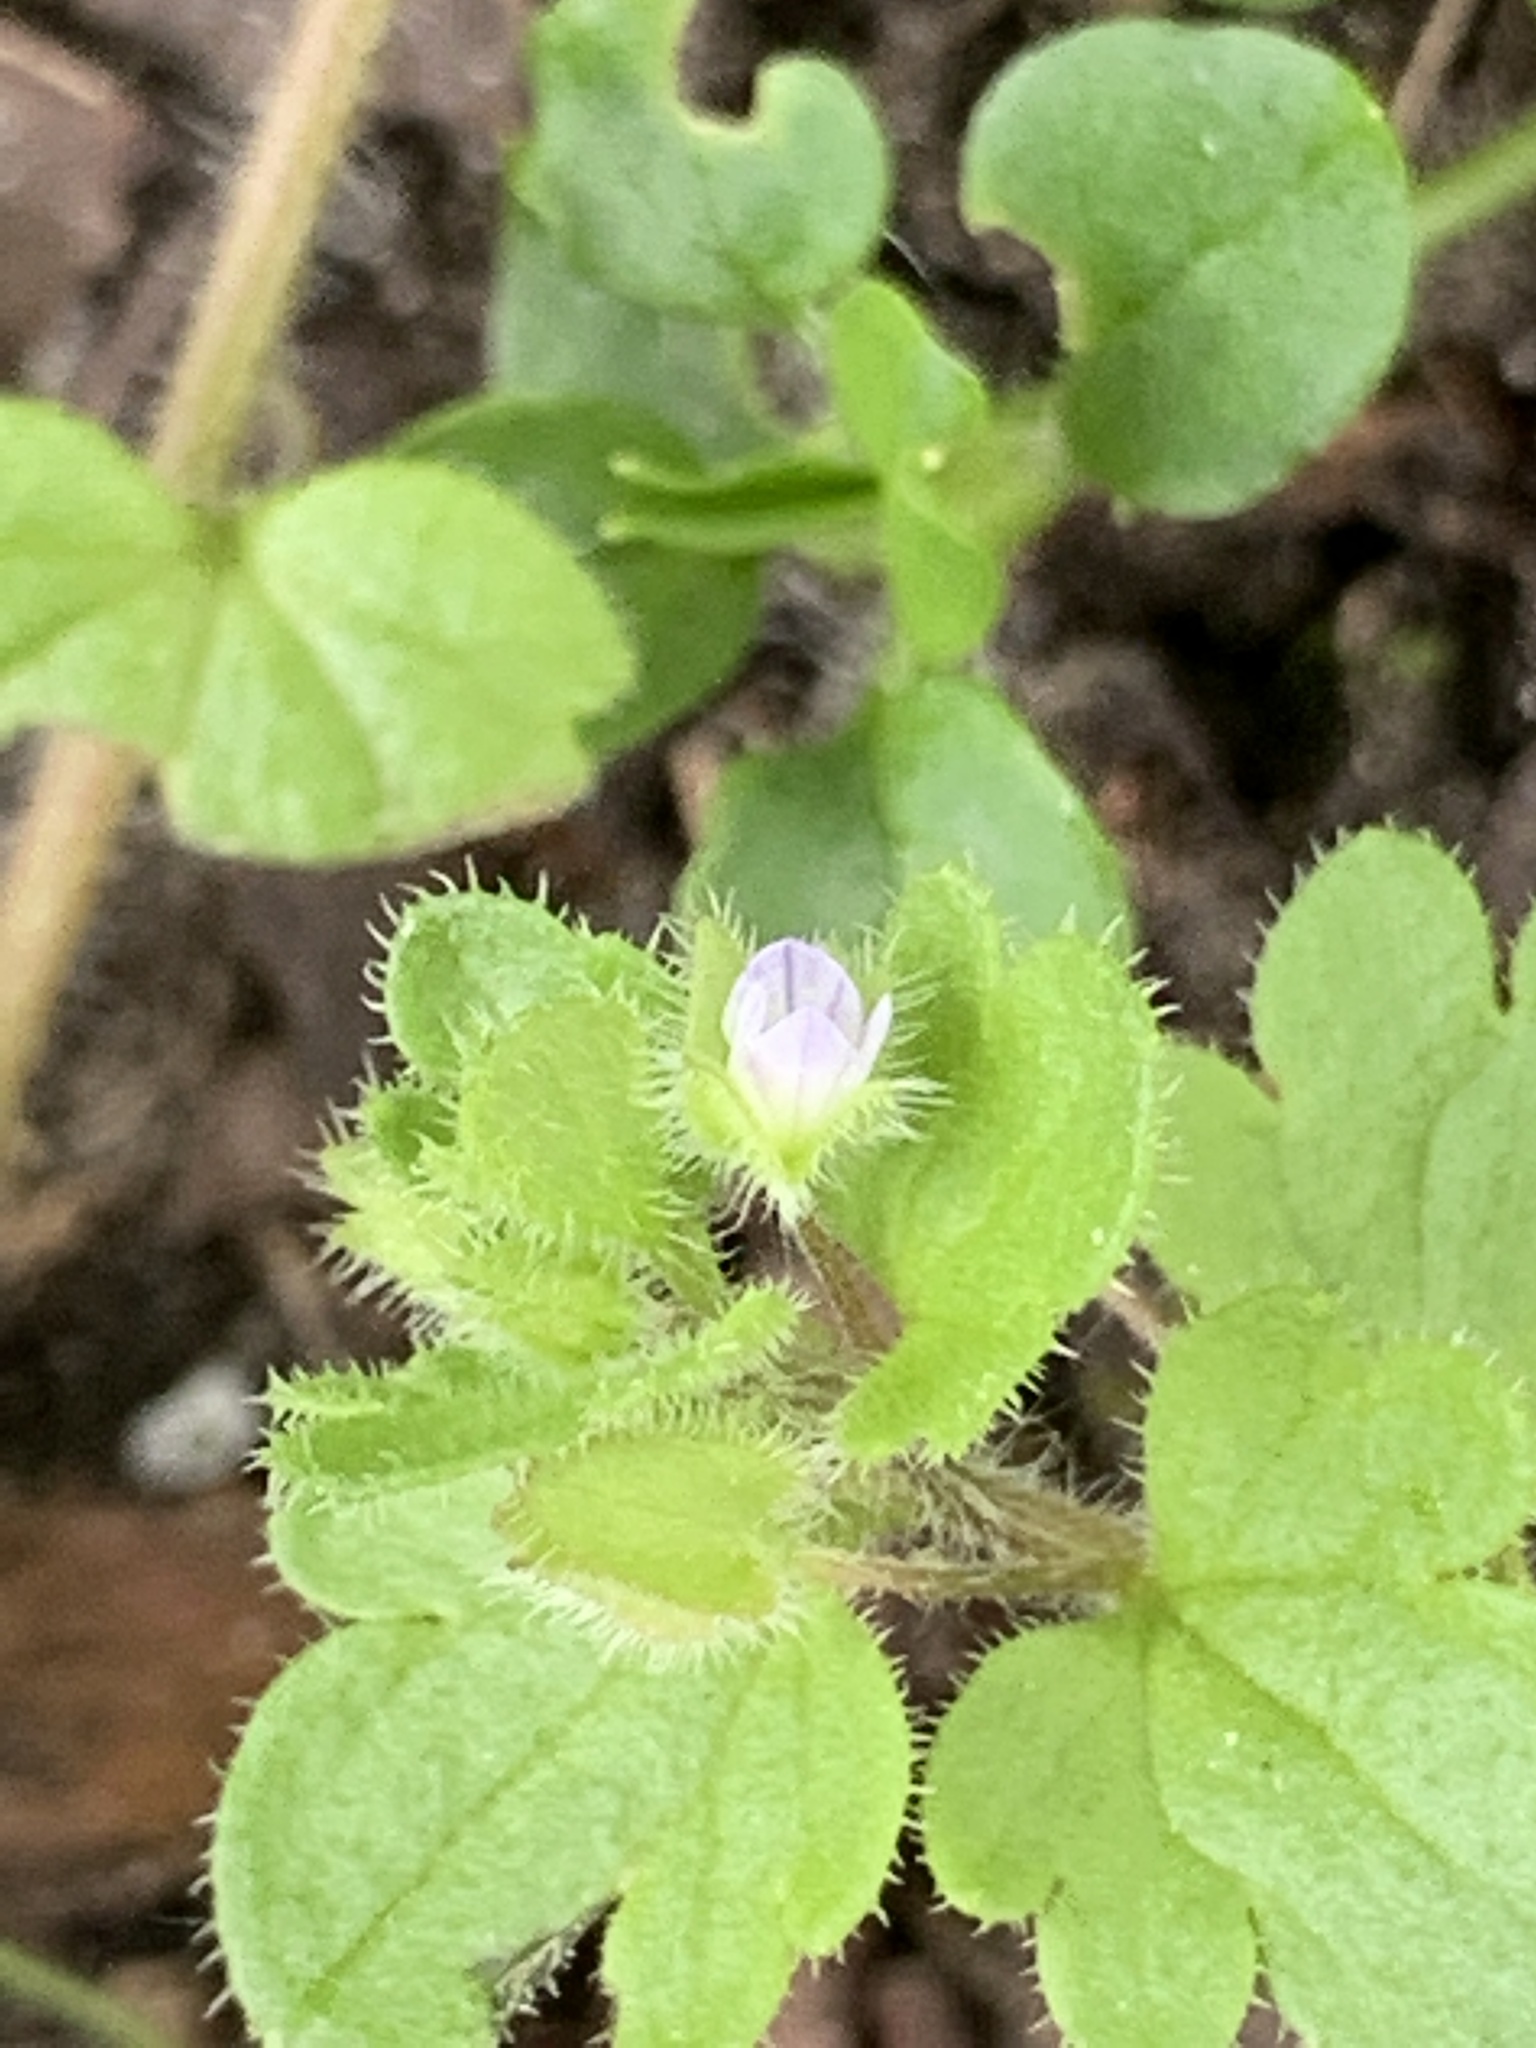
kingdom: Plantae
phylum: Tracheophyta
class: Magnoliopsida
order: Lamiales
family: Plantaginaceae
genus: Veronica
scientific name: Veronica hederifolia
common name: Ivy-leaved speedwell
